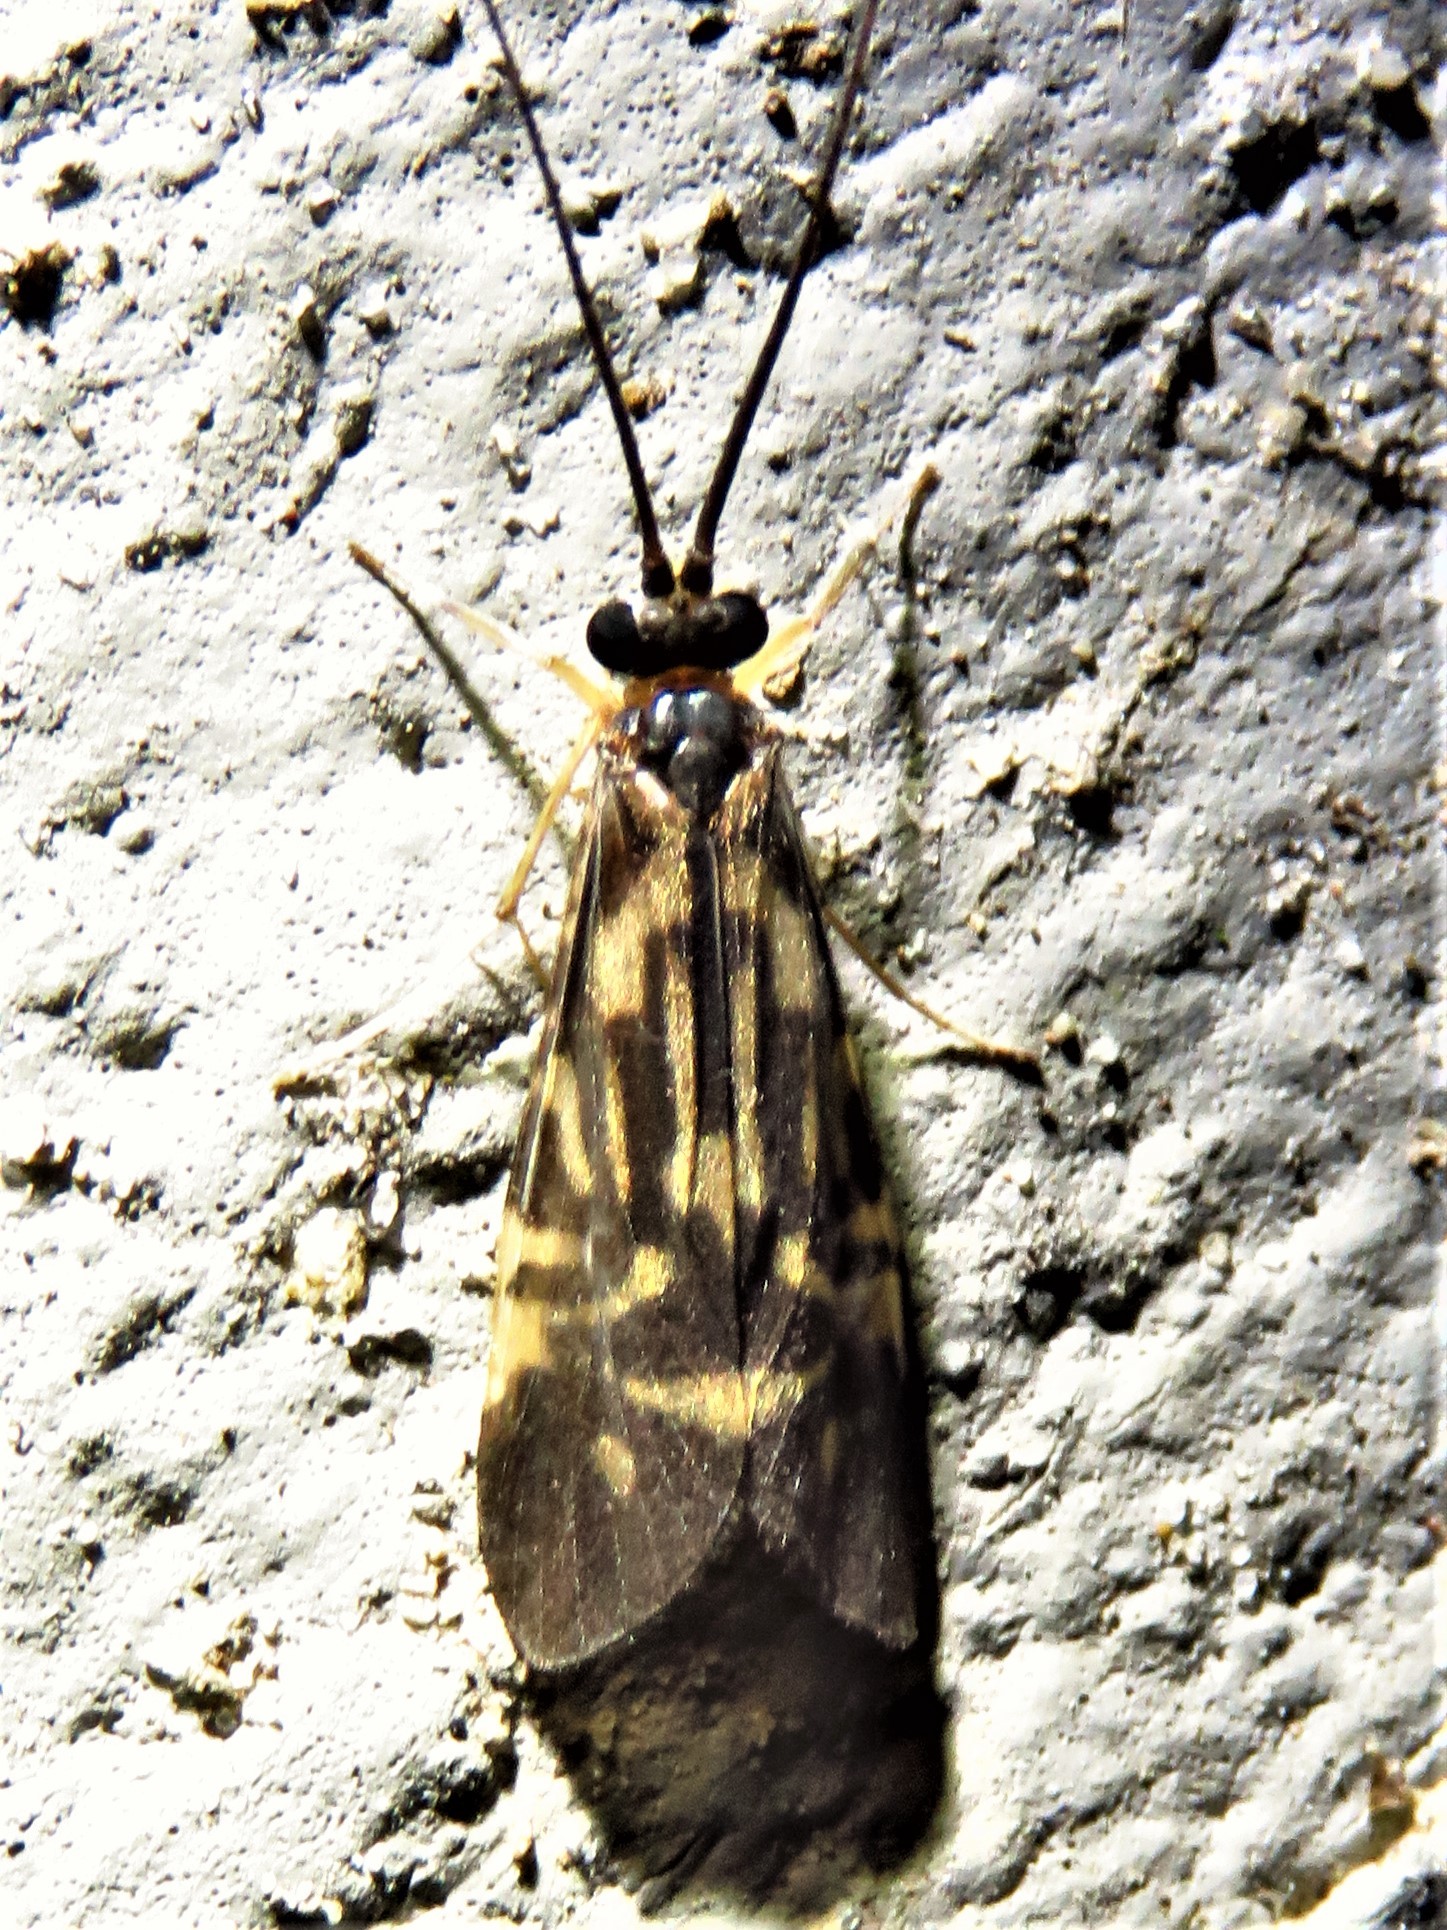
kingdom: Animalia
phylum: Arthropoda
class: Insecta
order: Trichoptera
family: Hydropsychidae
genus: Macrostemum
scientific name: Macrostemum carolina
